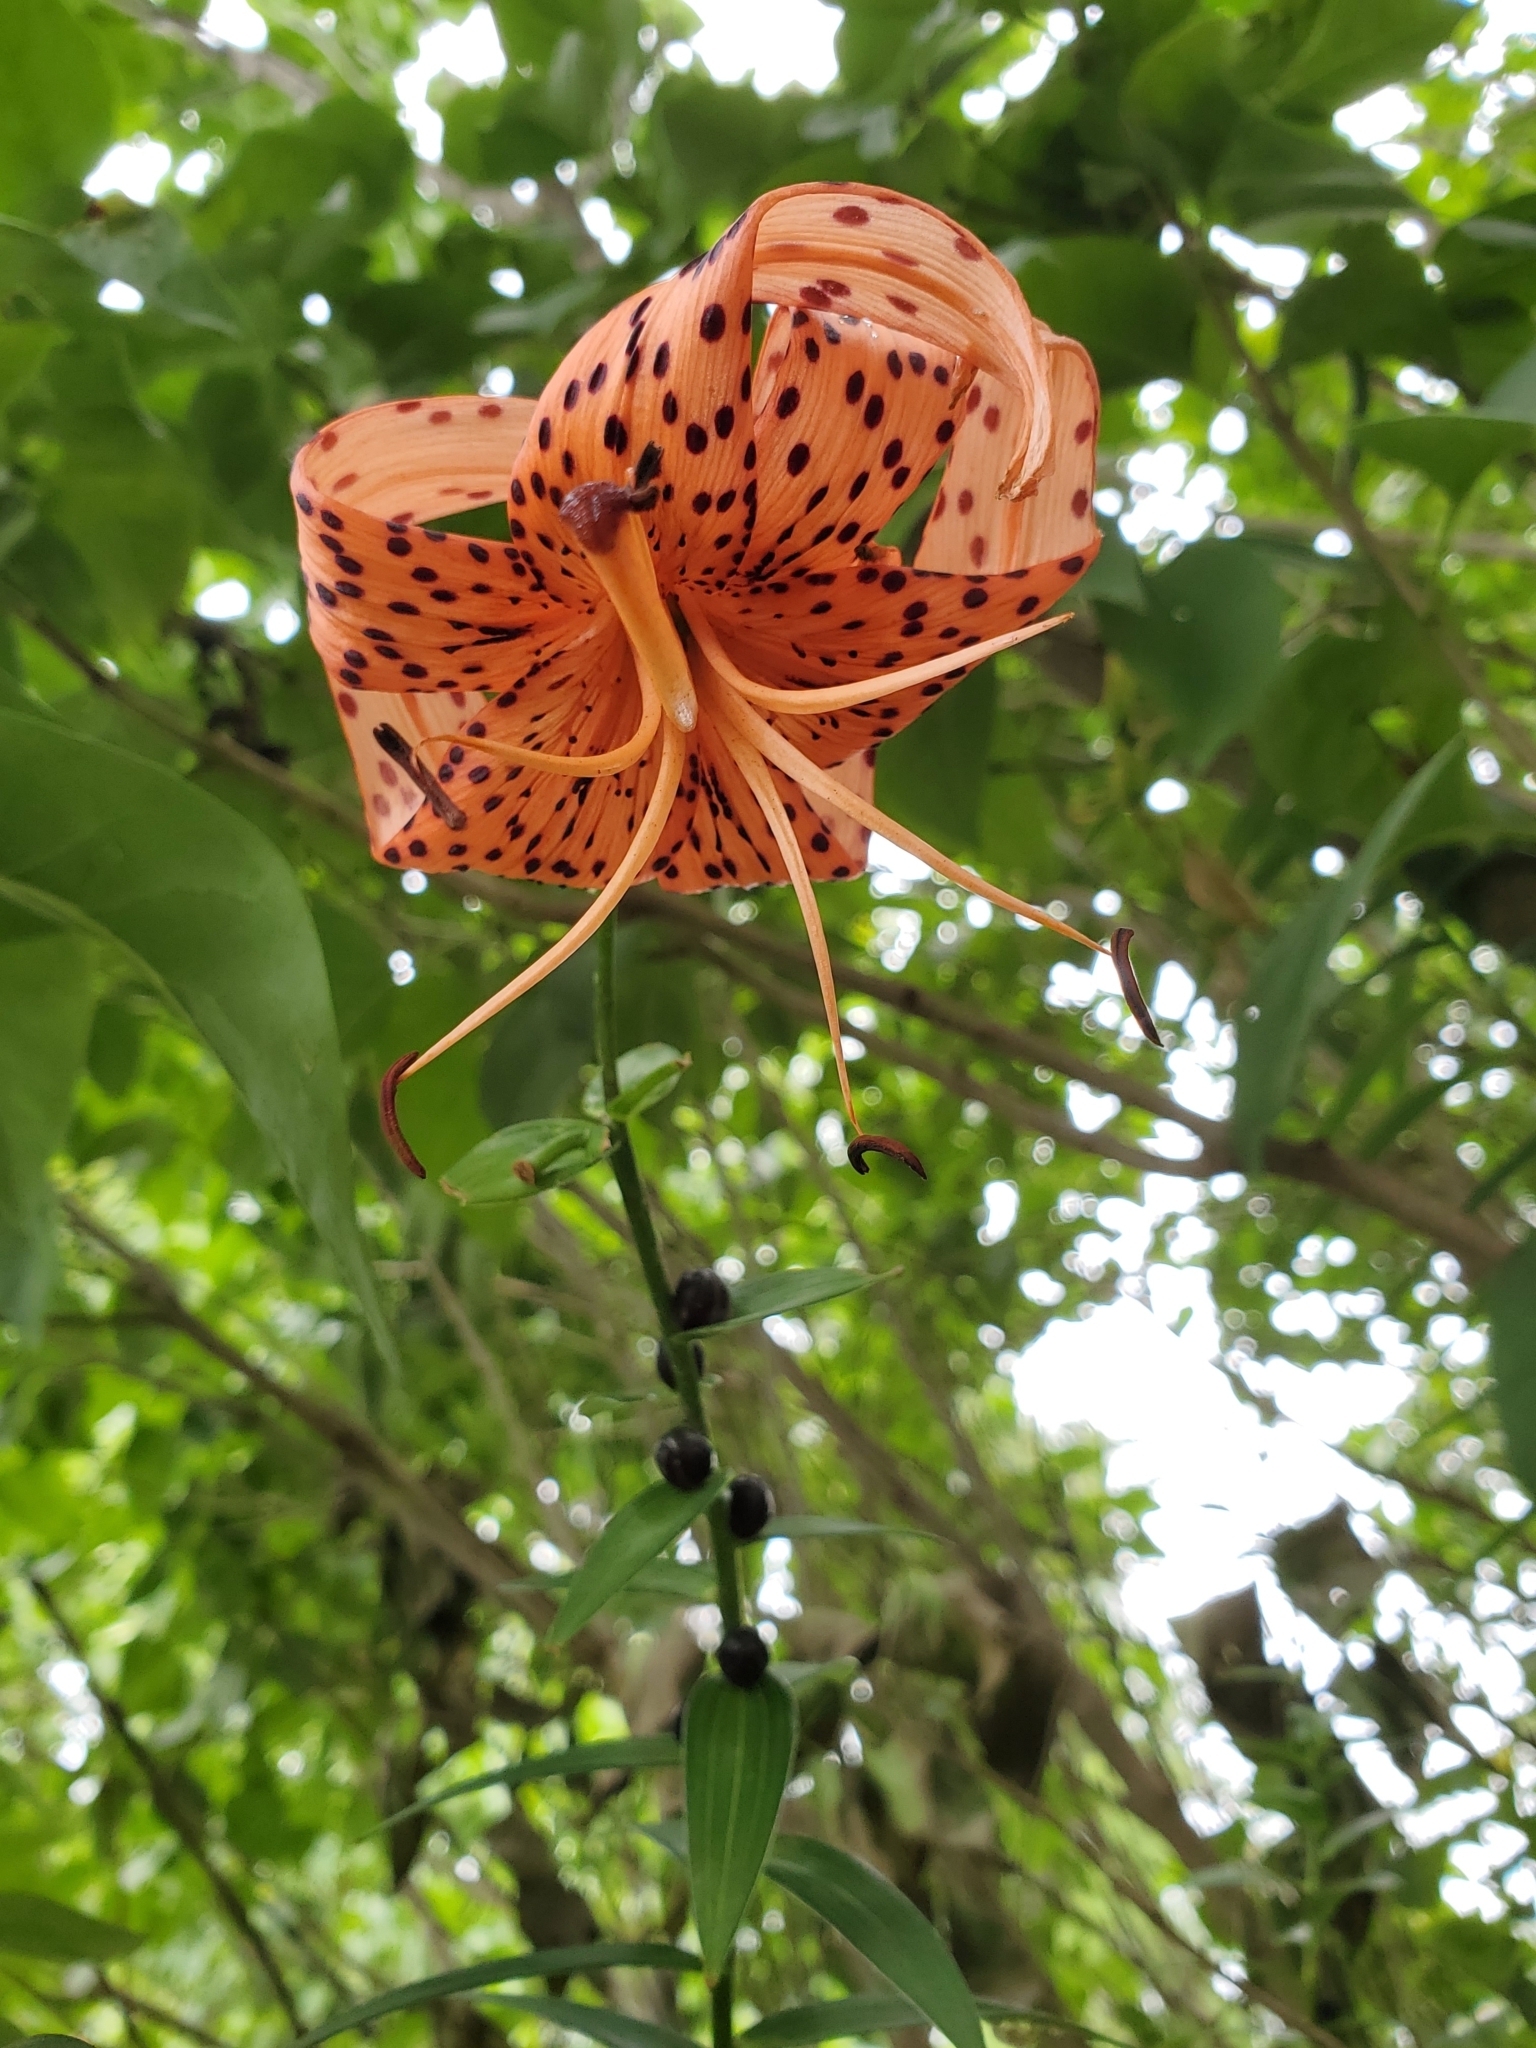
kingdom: Plantae
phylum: Tracheophyta
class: Liliopsida
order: Liliales
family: Liliaceae
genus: Lilium
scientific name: Lilium lancifolium
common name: Tiger lily
